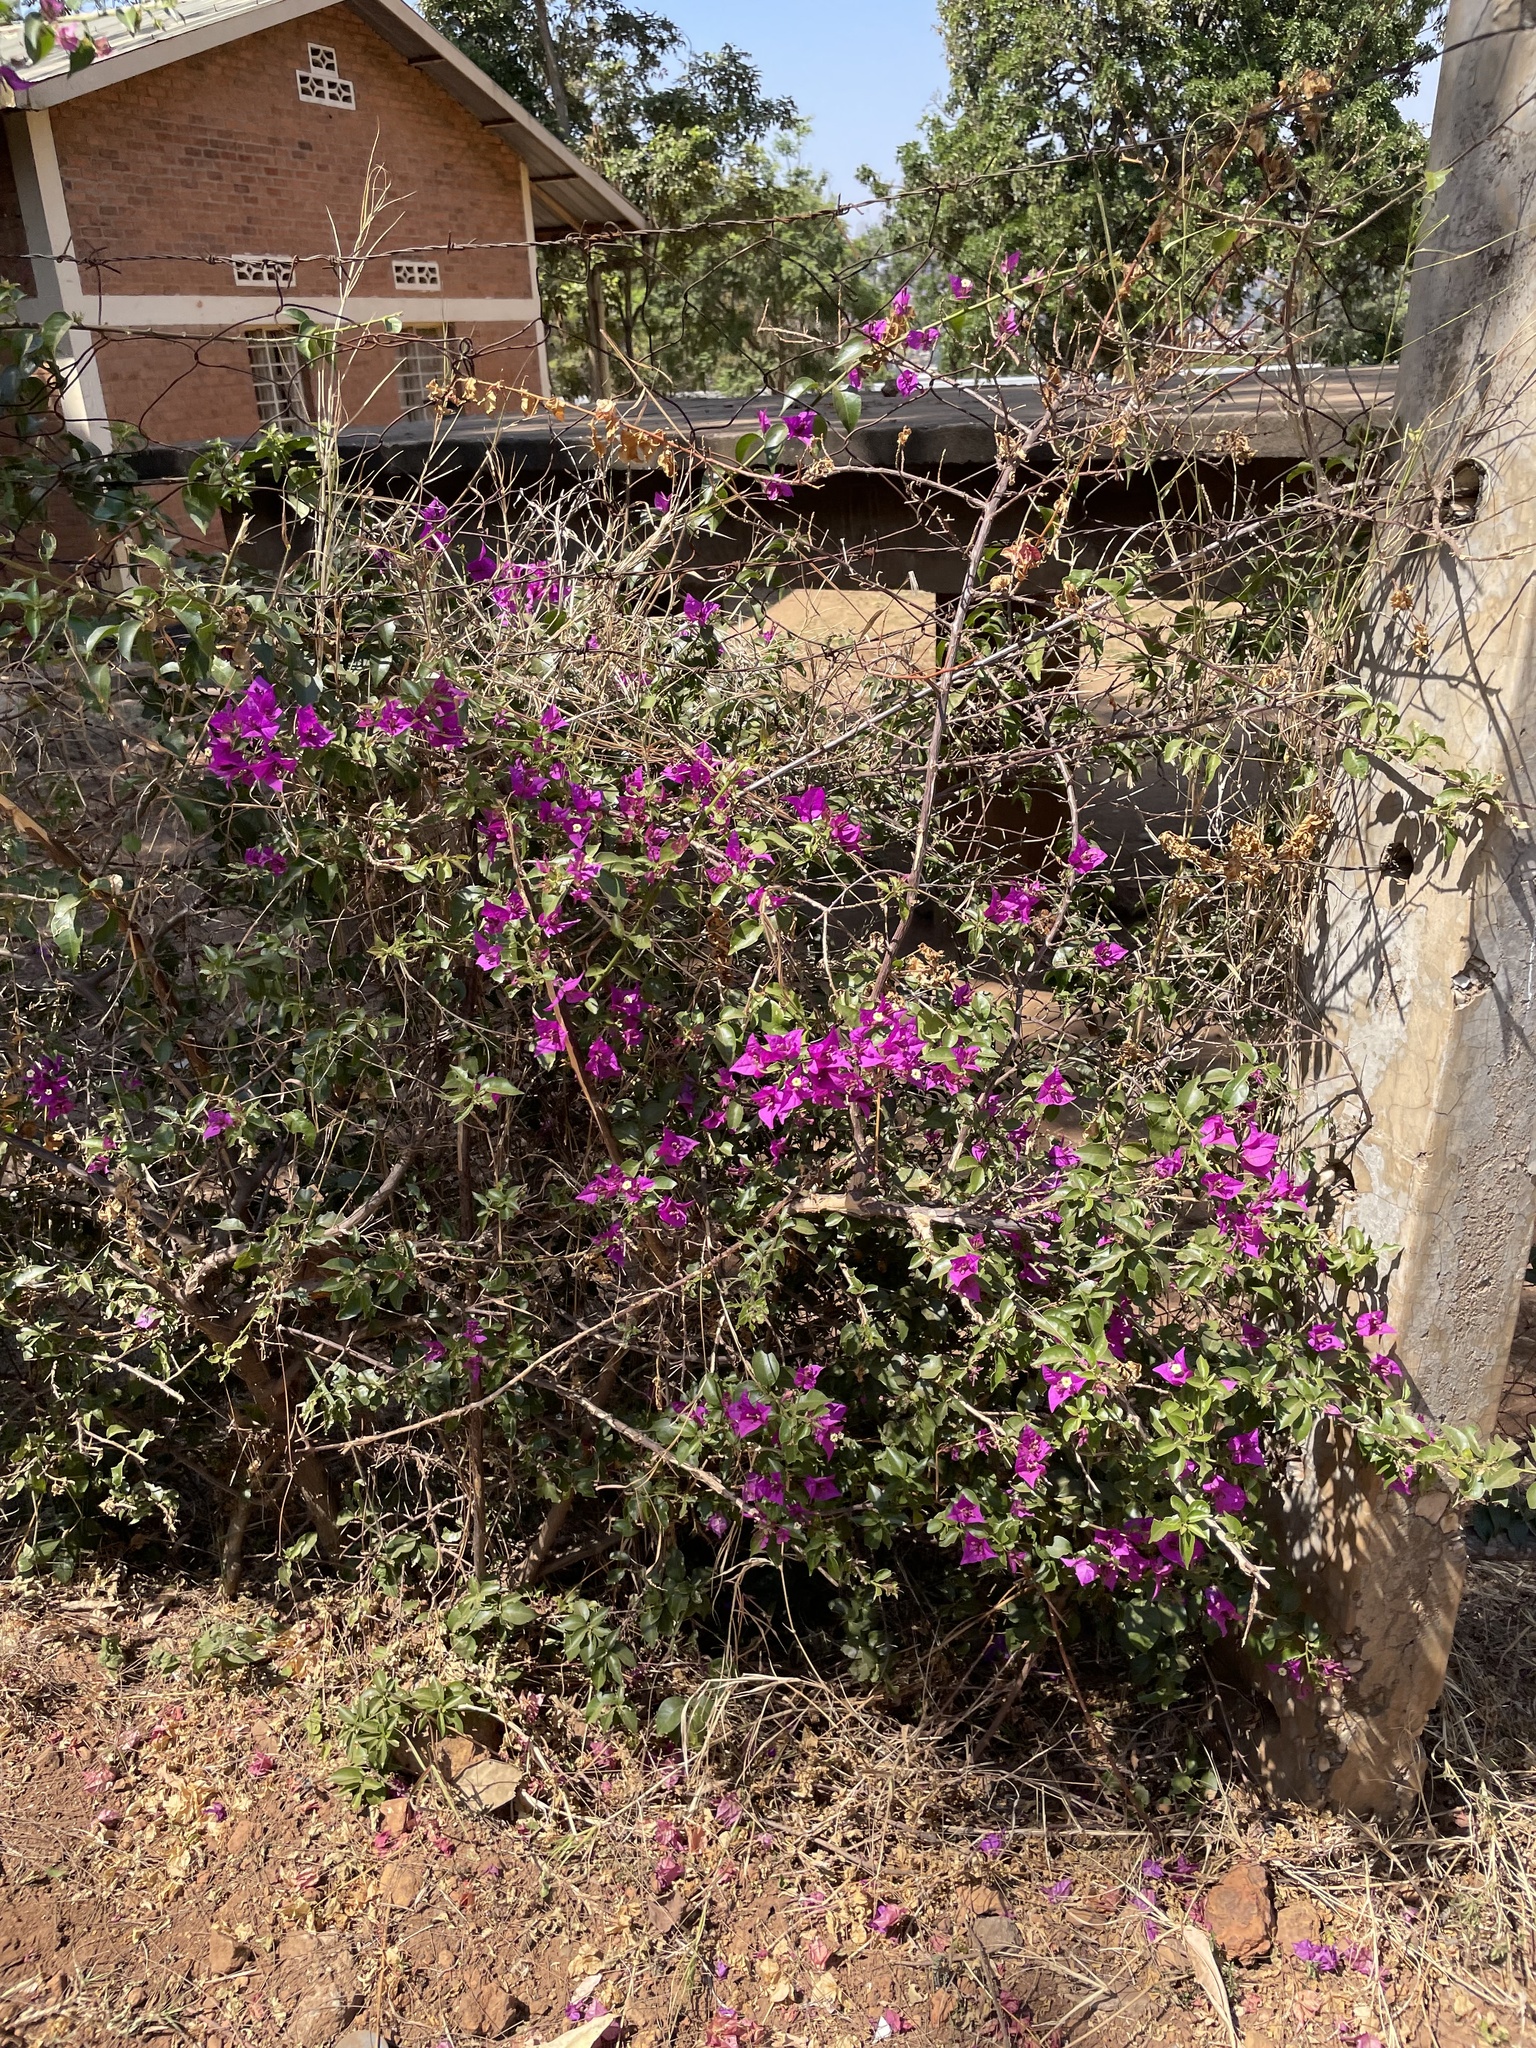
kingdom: Plantae
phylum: Tracheophyta
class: Magnoliopsida
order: Caryophyllales
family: Nyctaginaceae
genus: Bougainvillea
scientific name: Bougainvillea spectabilis
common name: Great bougainvillea
